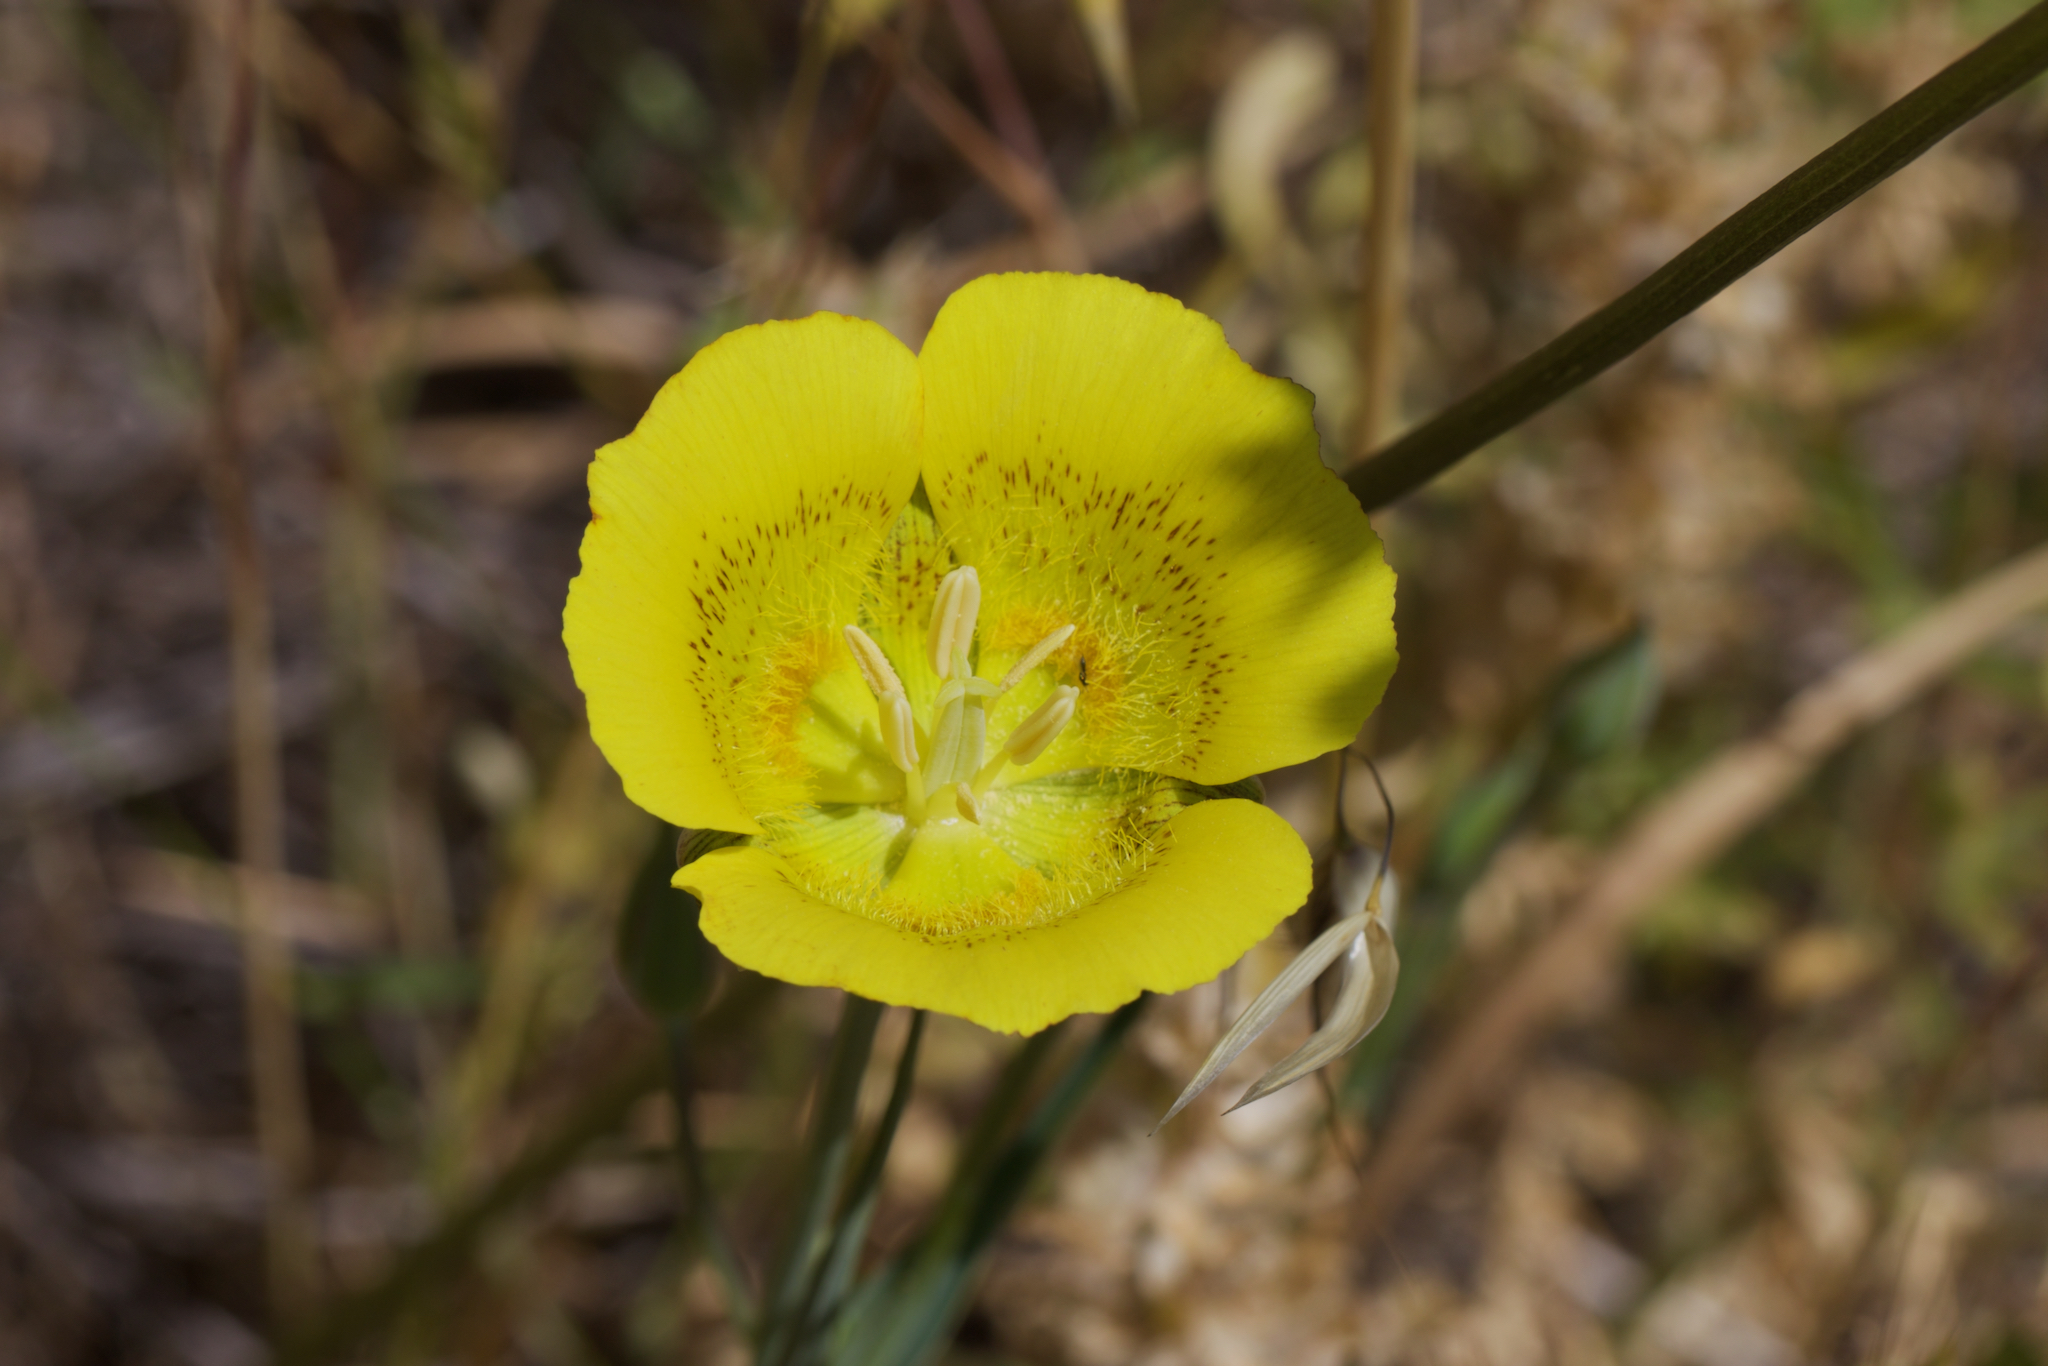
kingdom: Plantae
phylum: Tracheophyta
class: Liliopsida
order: Liliales
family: Liliaceae
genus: Calochortus
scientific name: Calochortus luteus
